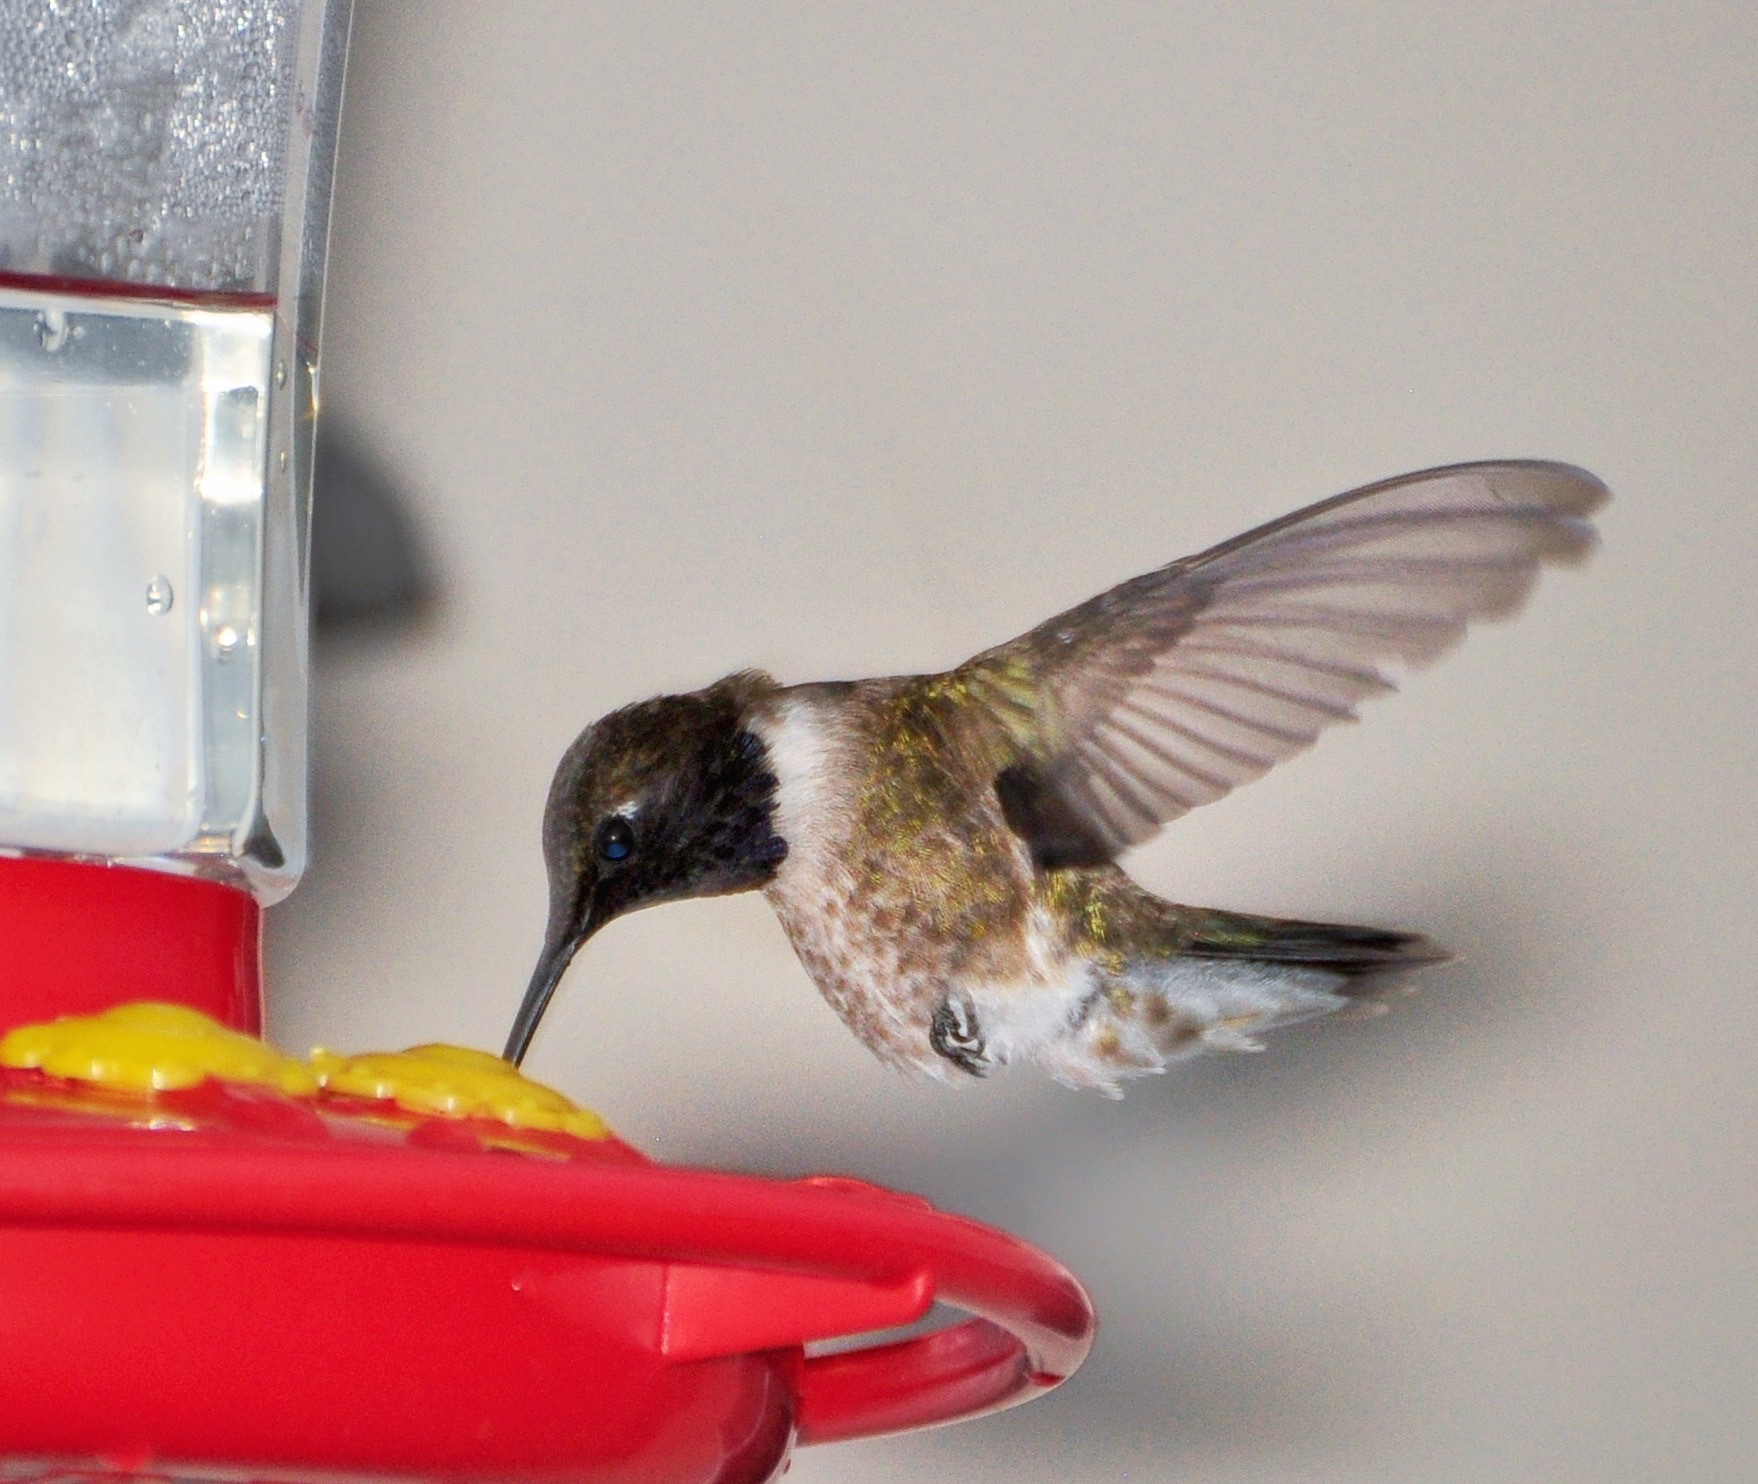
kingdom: Animalia
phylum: Chordata
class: Aves
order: Apodiformes
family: Trochilidae
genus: Archilochus
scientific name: Archilochus alexandri
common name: Black-chinned hummingbird
